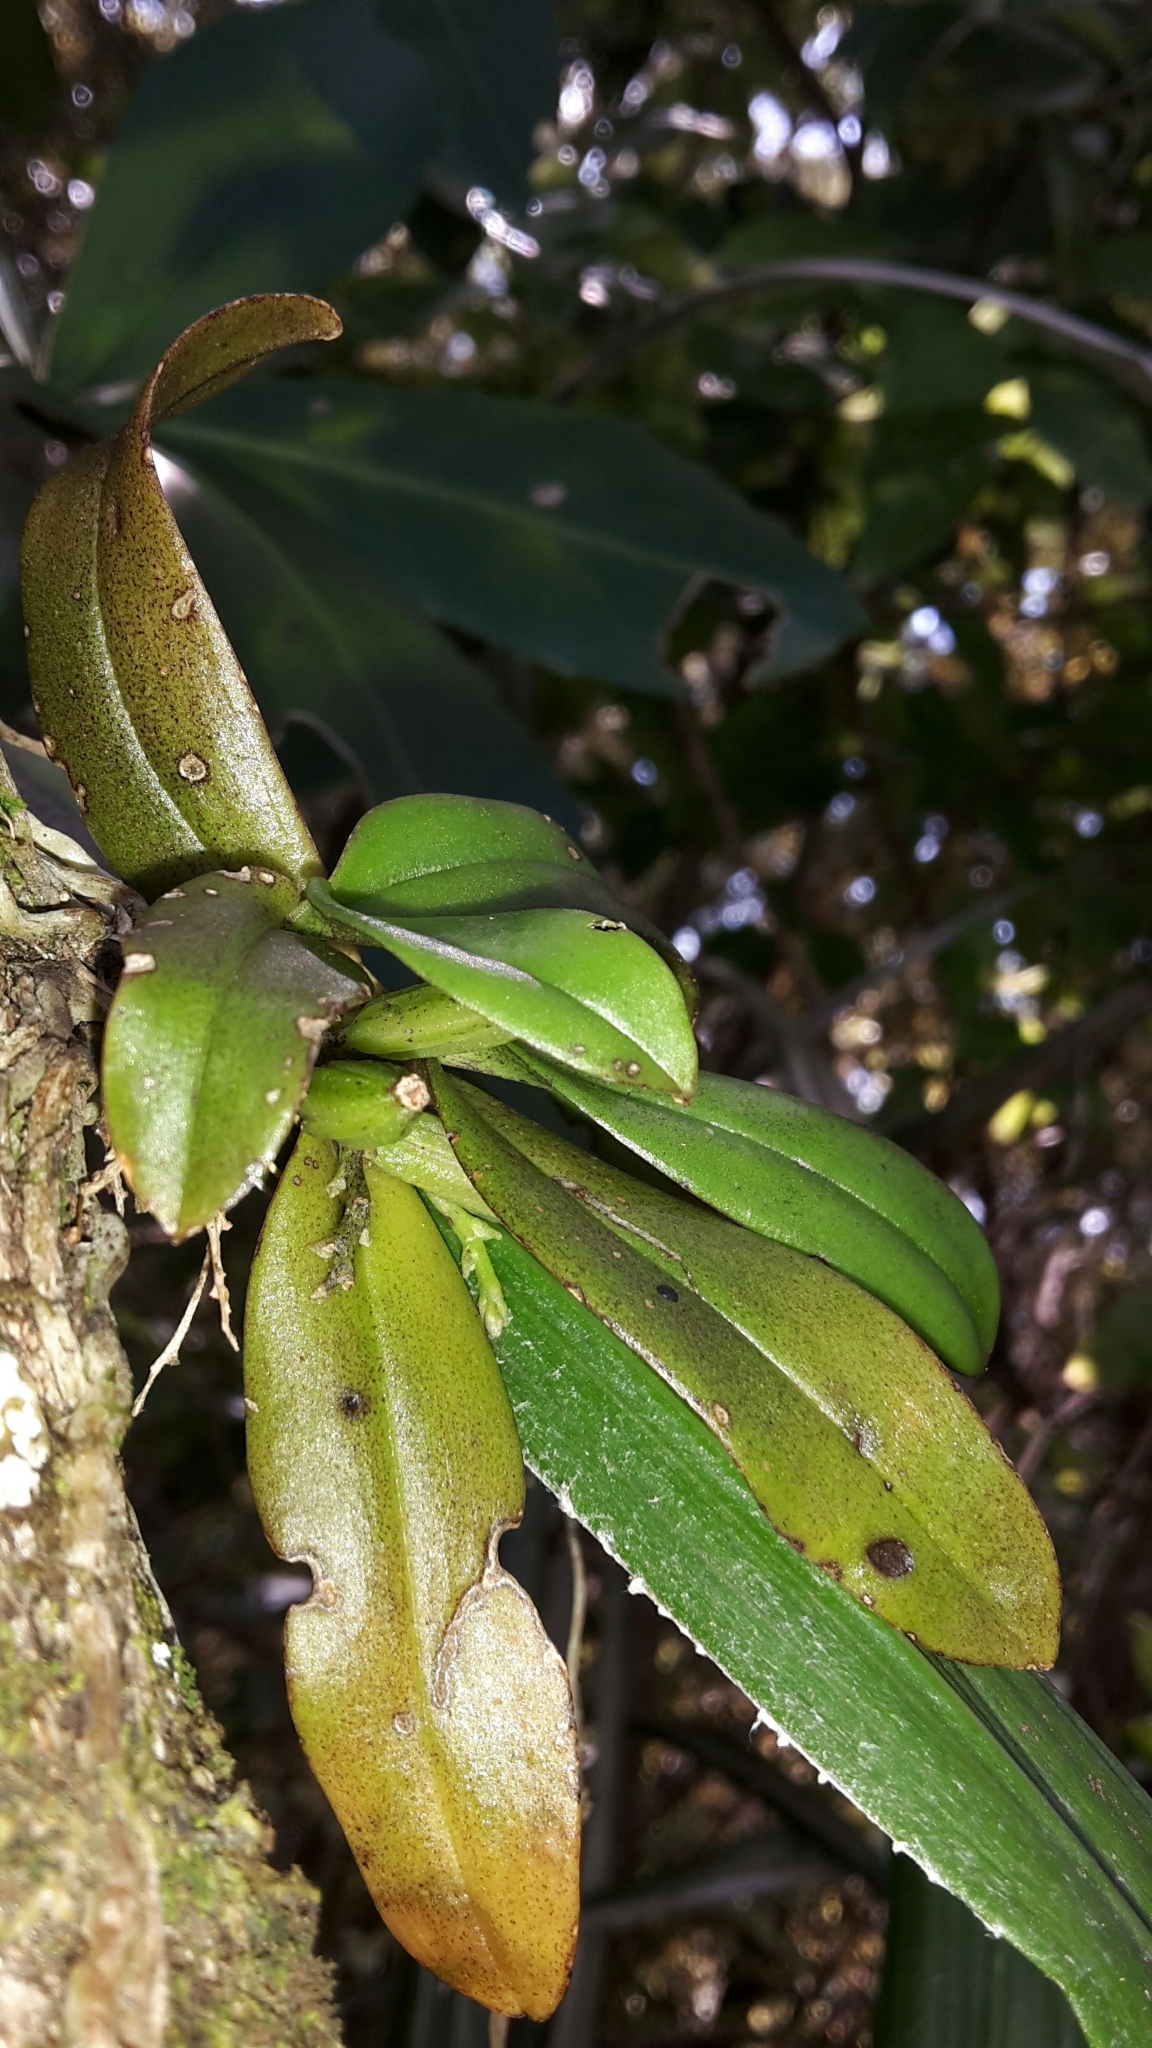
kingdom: Plantae
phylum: Tracheophyta
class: Liliopsida
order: Asparagales
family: Orchidaceae
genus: Drymoanthus
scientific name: Drymoanthus adversus
